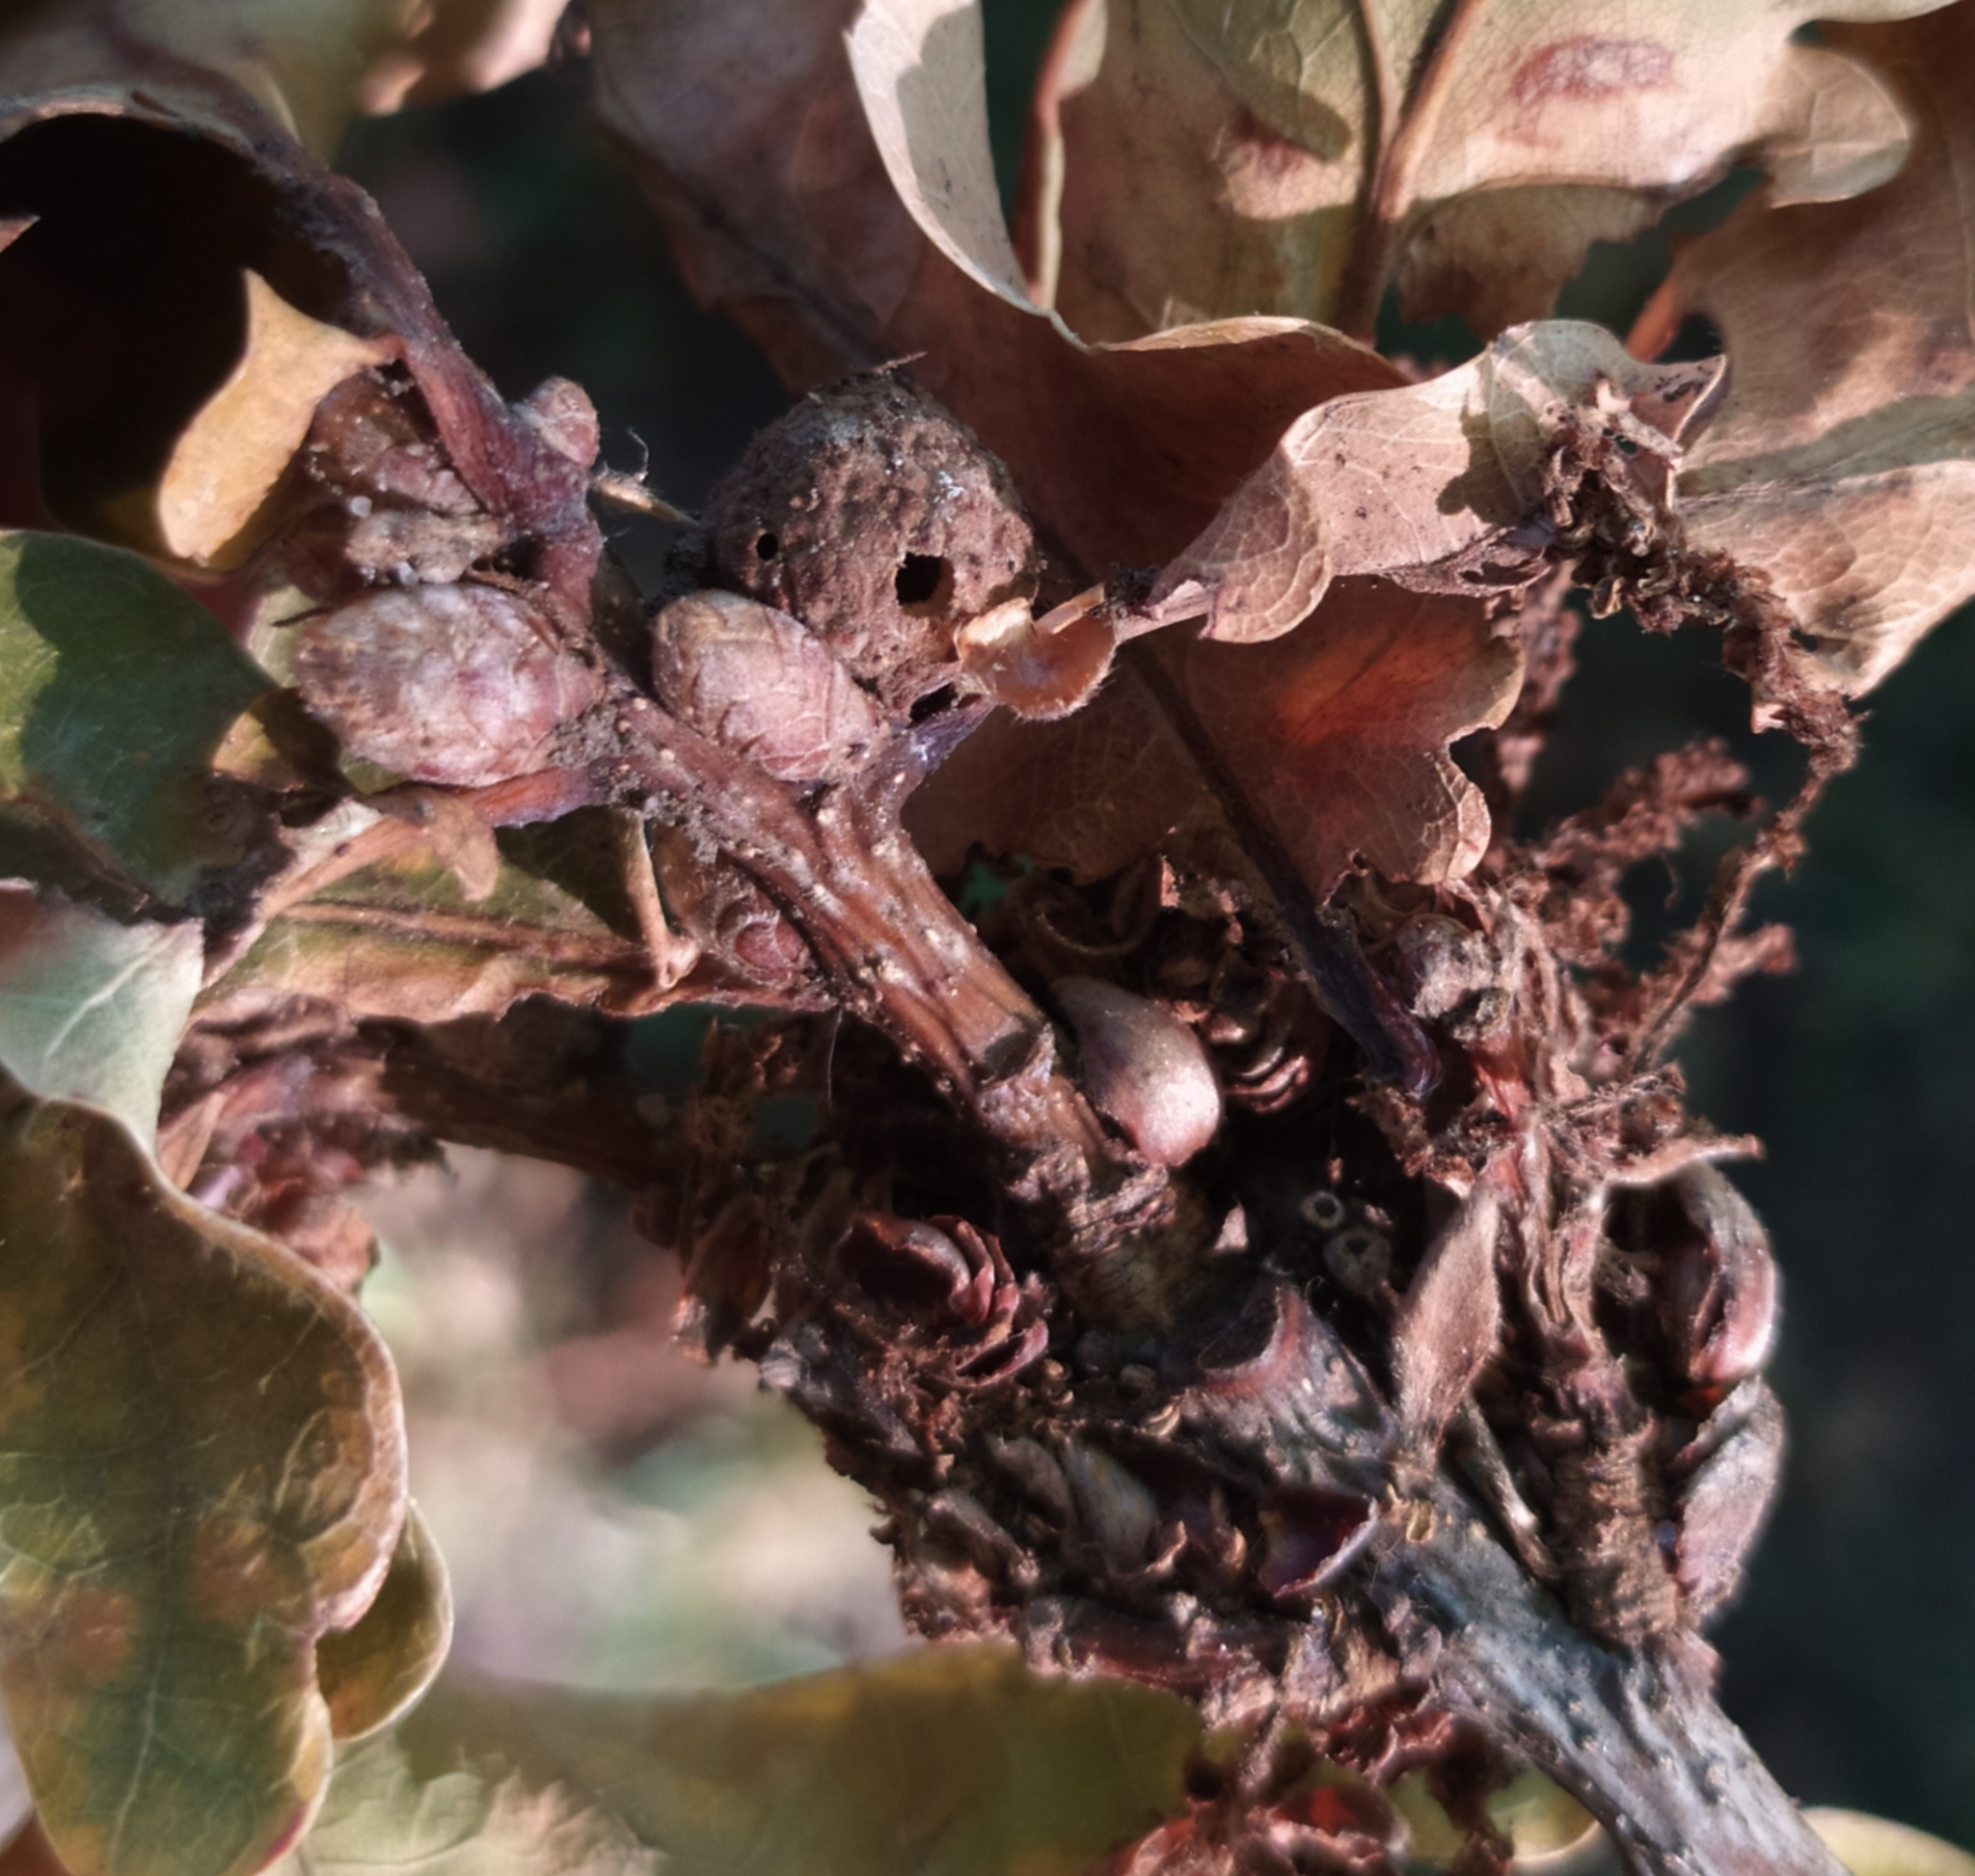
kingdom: Animalia
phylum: Arthropoda
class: Insecta
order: Hymenoptera
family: Cynipidae
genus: Andricus
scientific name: Andricus caliciformis
